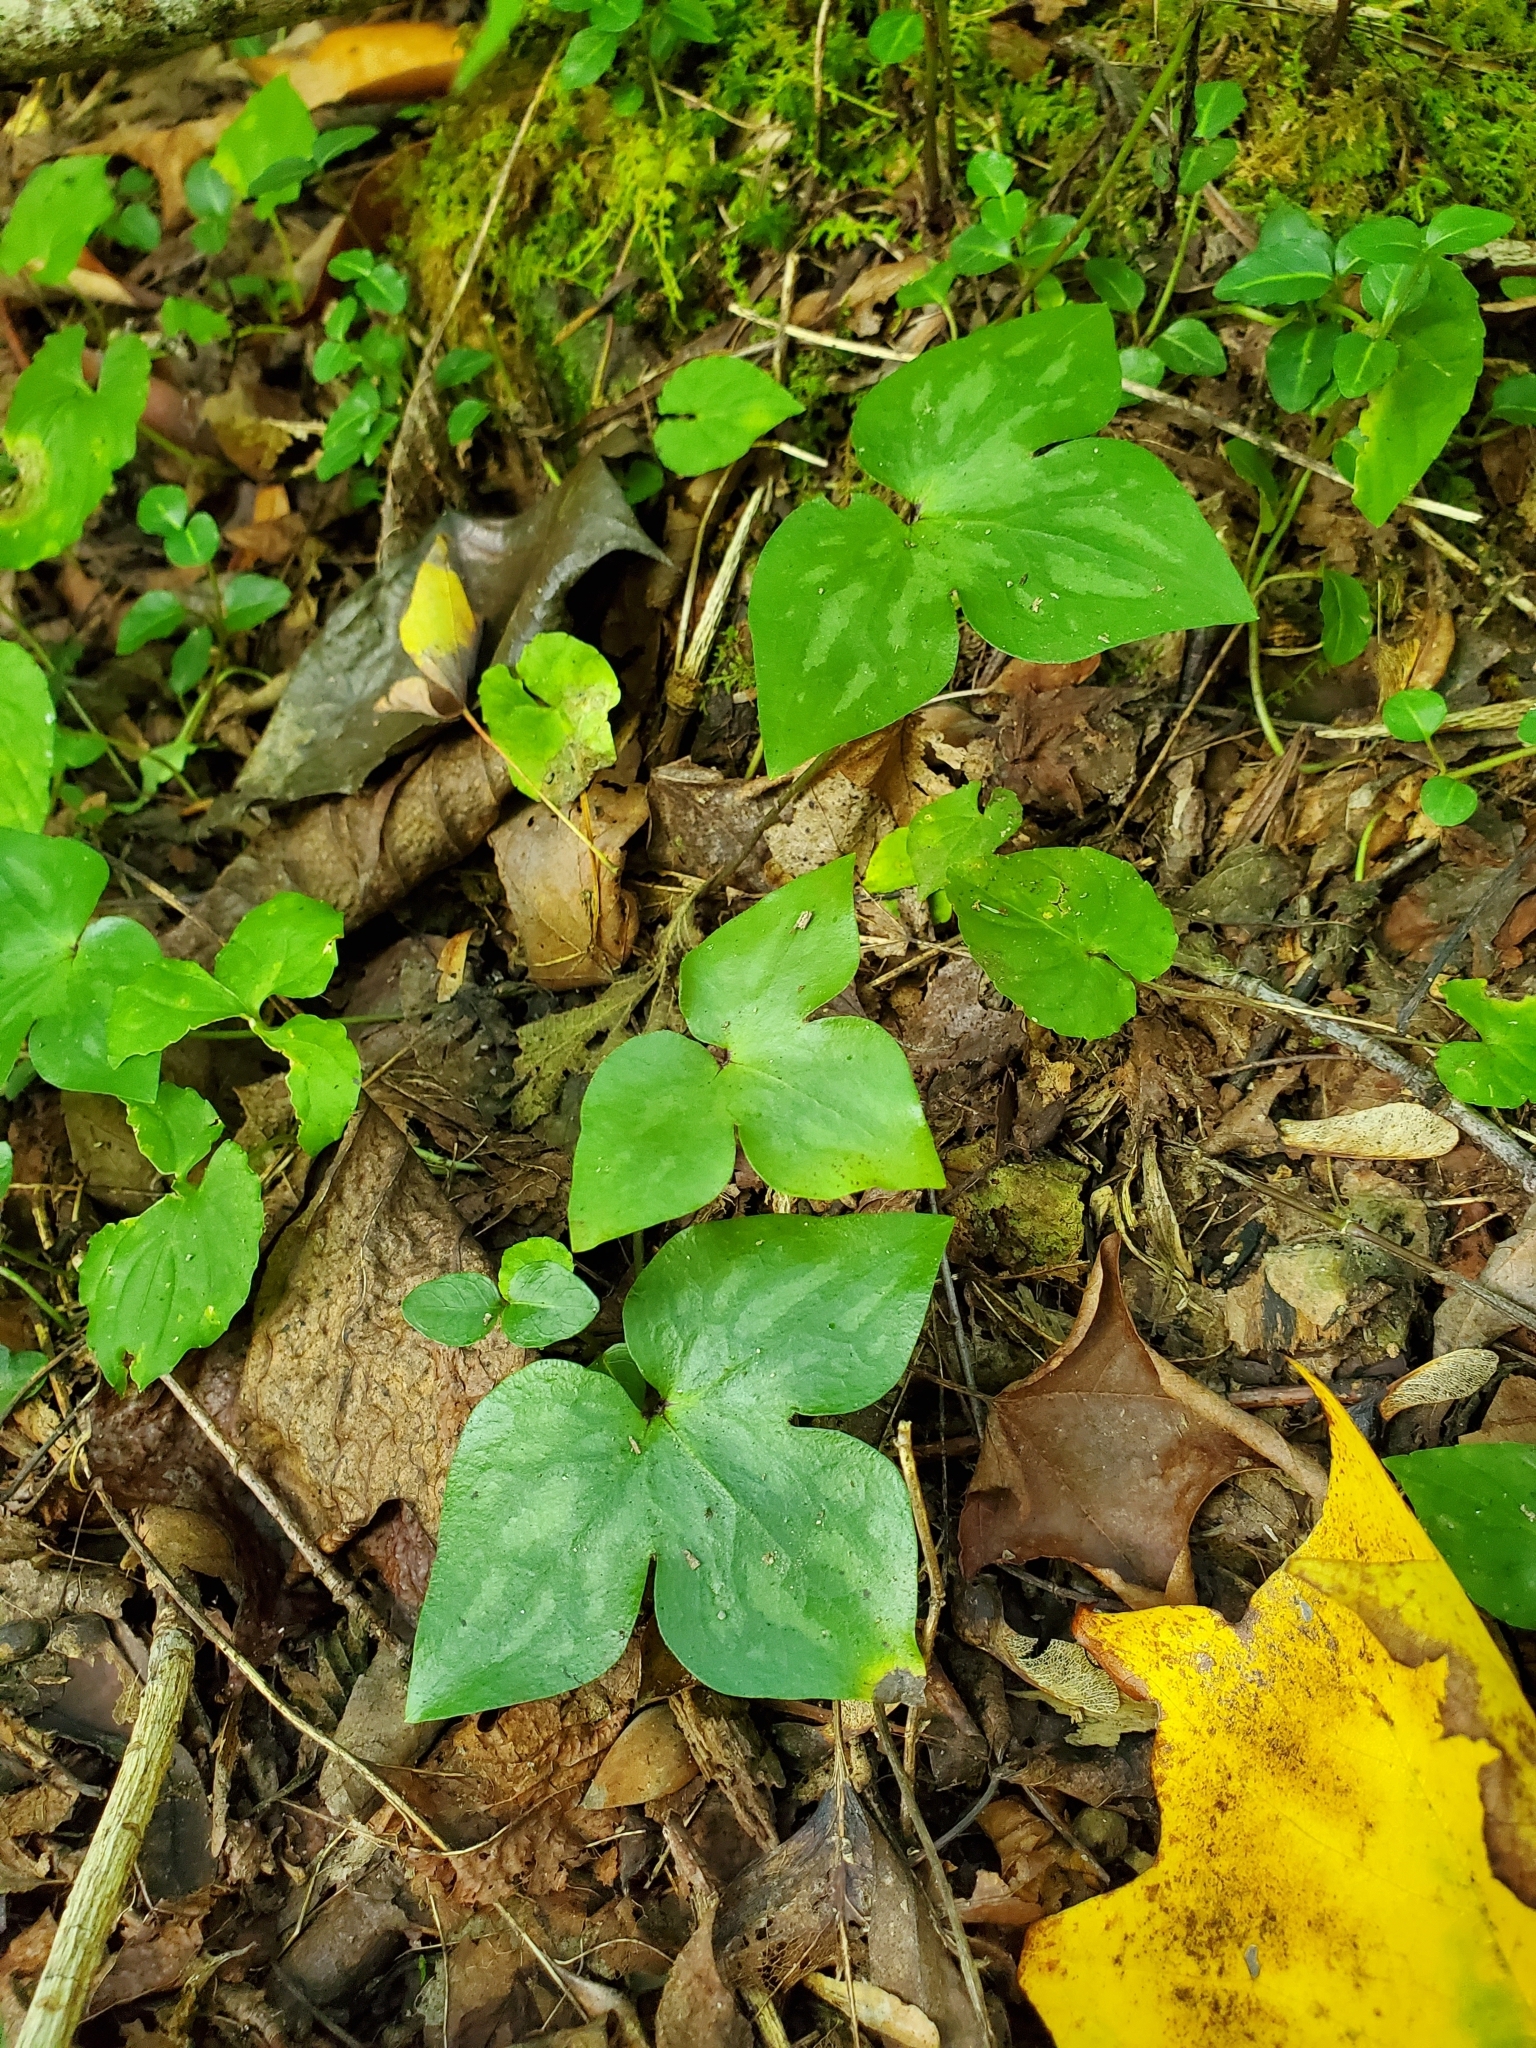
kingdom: Plantae
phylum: Tracheophyta
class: Magnoliopsida
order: Ranunculales
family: Ranunculaceae
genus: Hepatica
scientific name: Hepatica acutiloba
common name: Sharp-lobed hepatica
